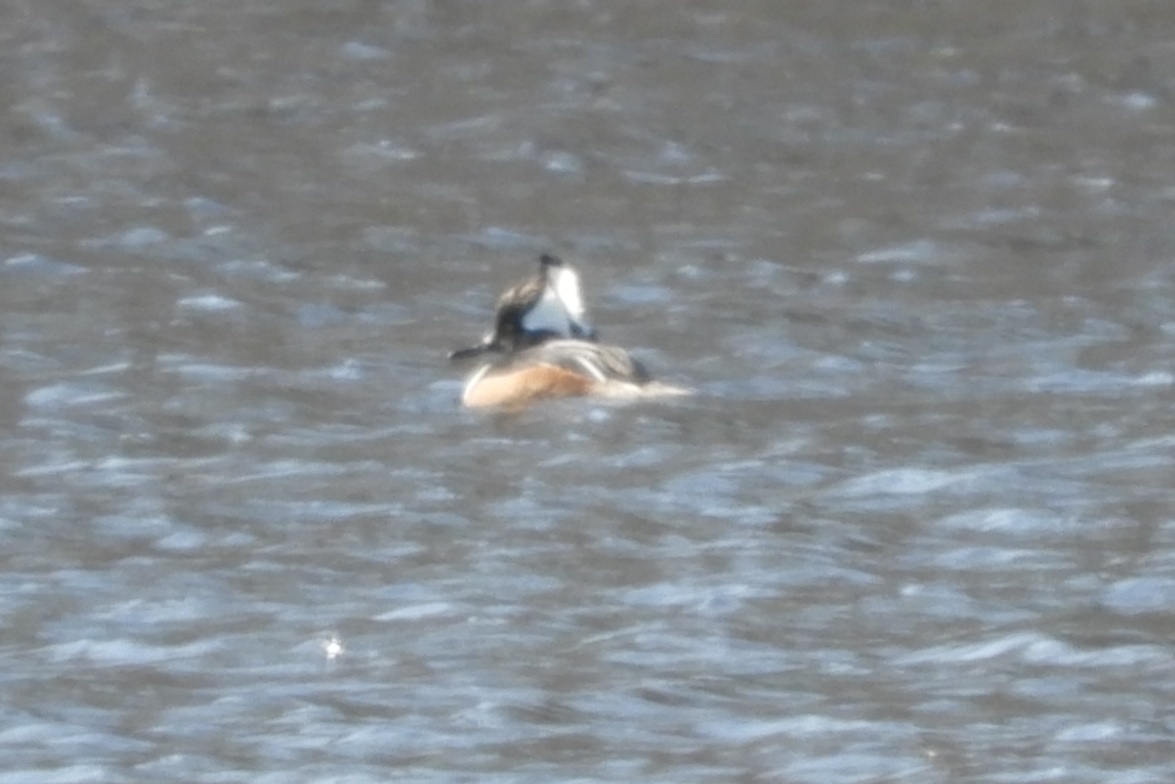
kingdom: Animalia
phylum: Chordata
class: Aves
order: Anseriformes
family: Anatidae
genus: Lophodytes
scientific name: Lophodytes cucullatus
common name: Hooded merganser
